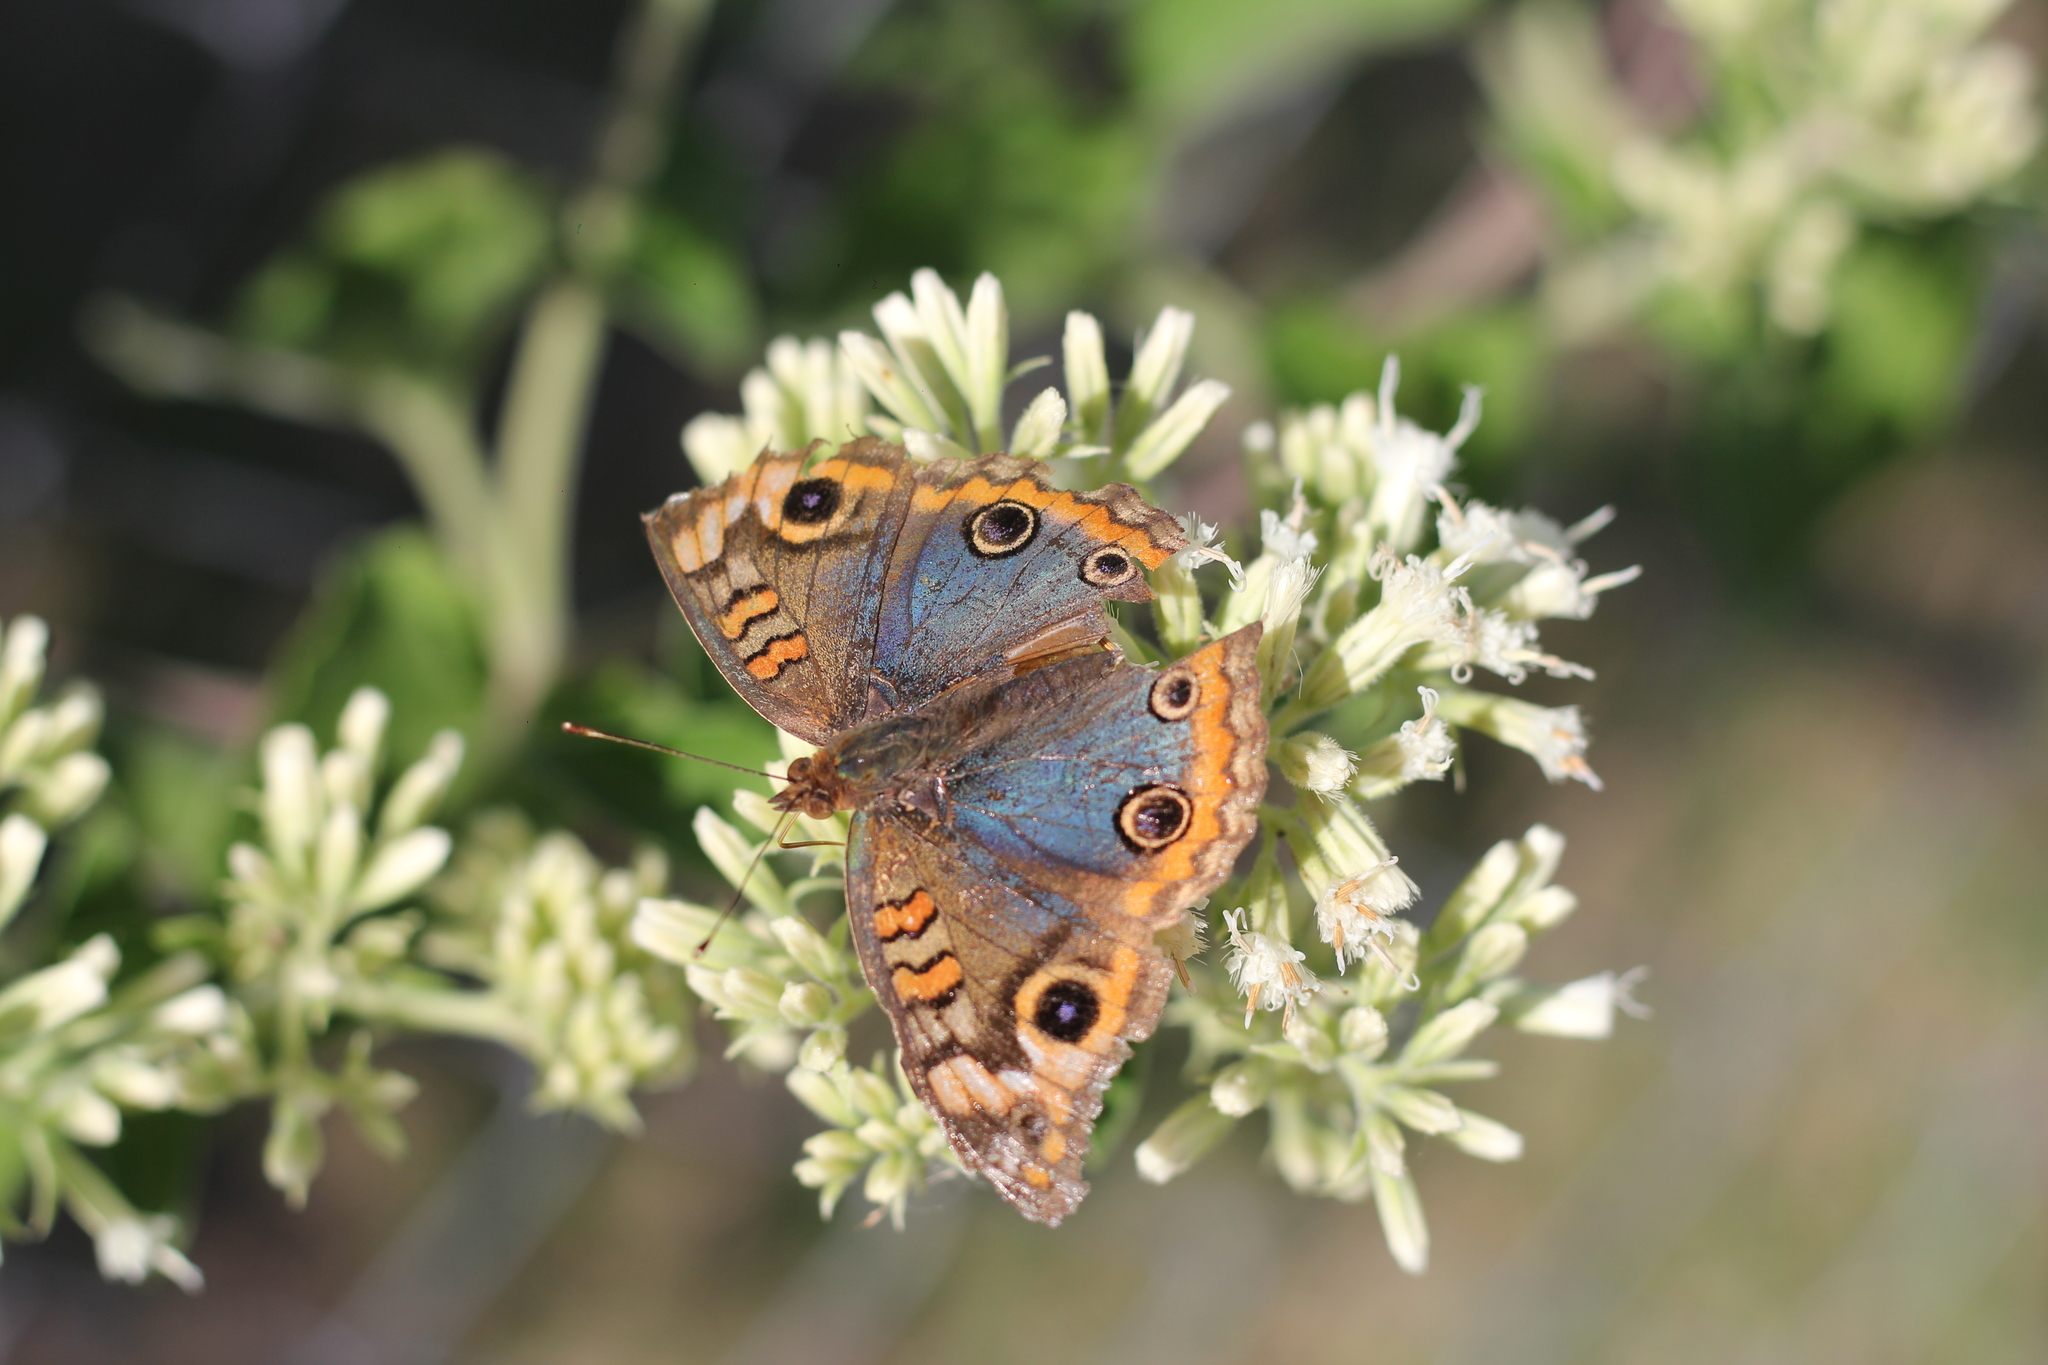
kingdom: Animalia
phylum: Arthropoda
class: Insecta
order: Lepidoptera
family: Nymphalidae
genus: Junonia
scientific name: Junonia lavinia
